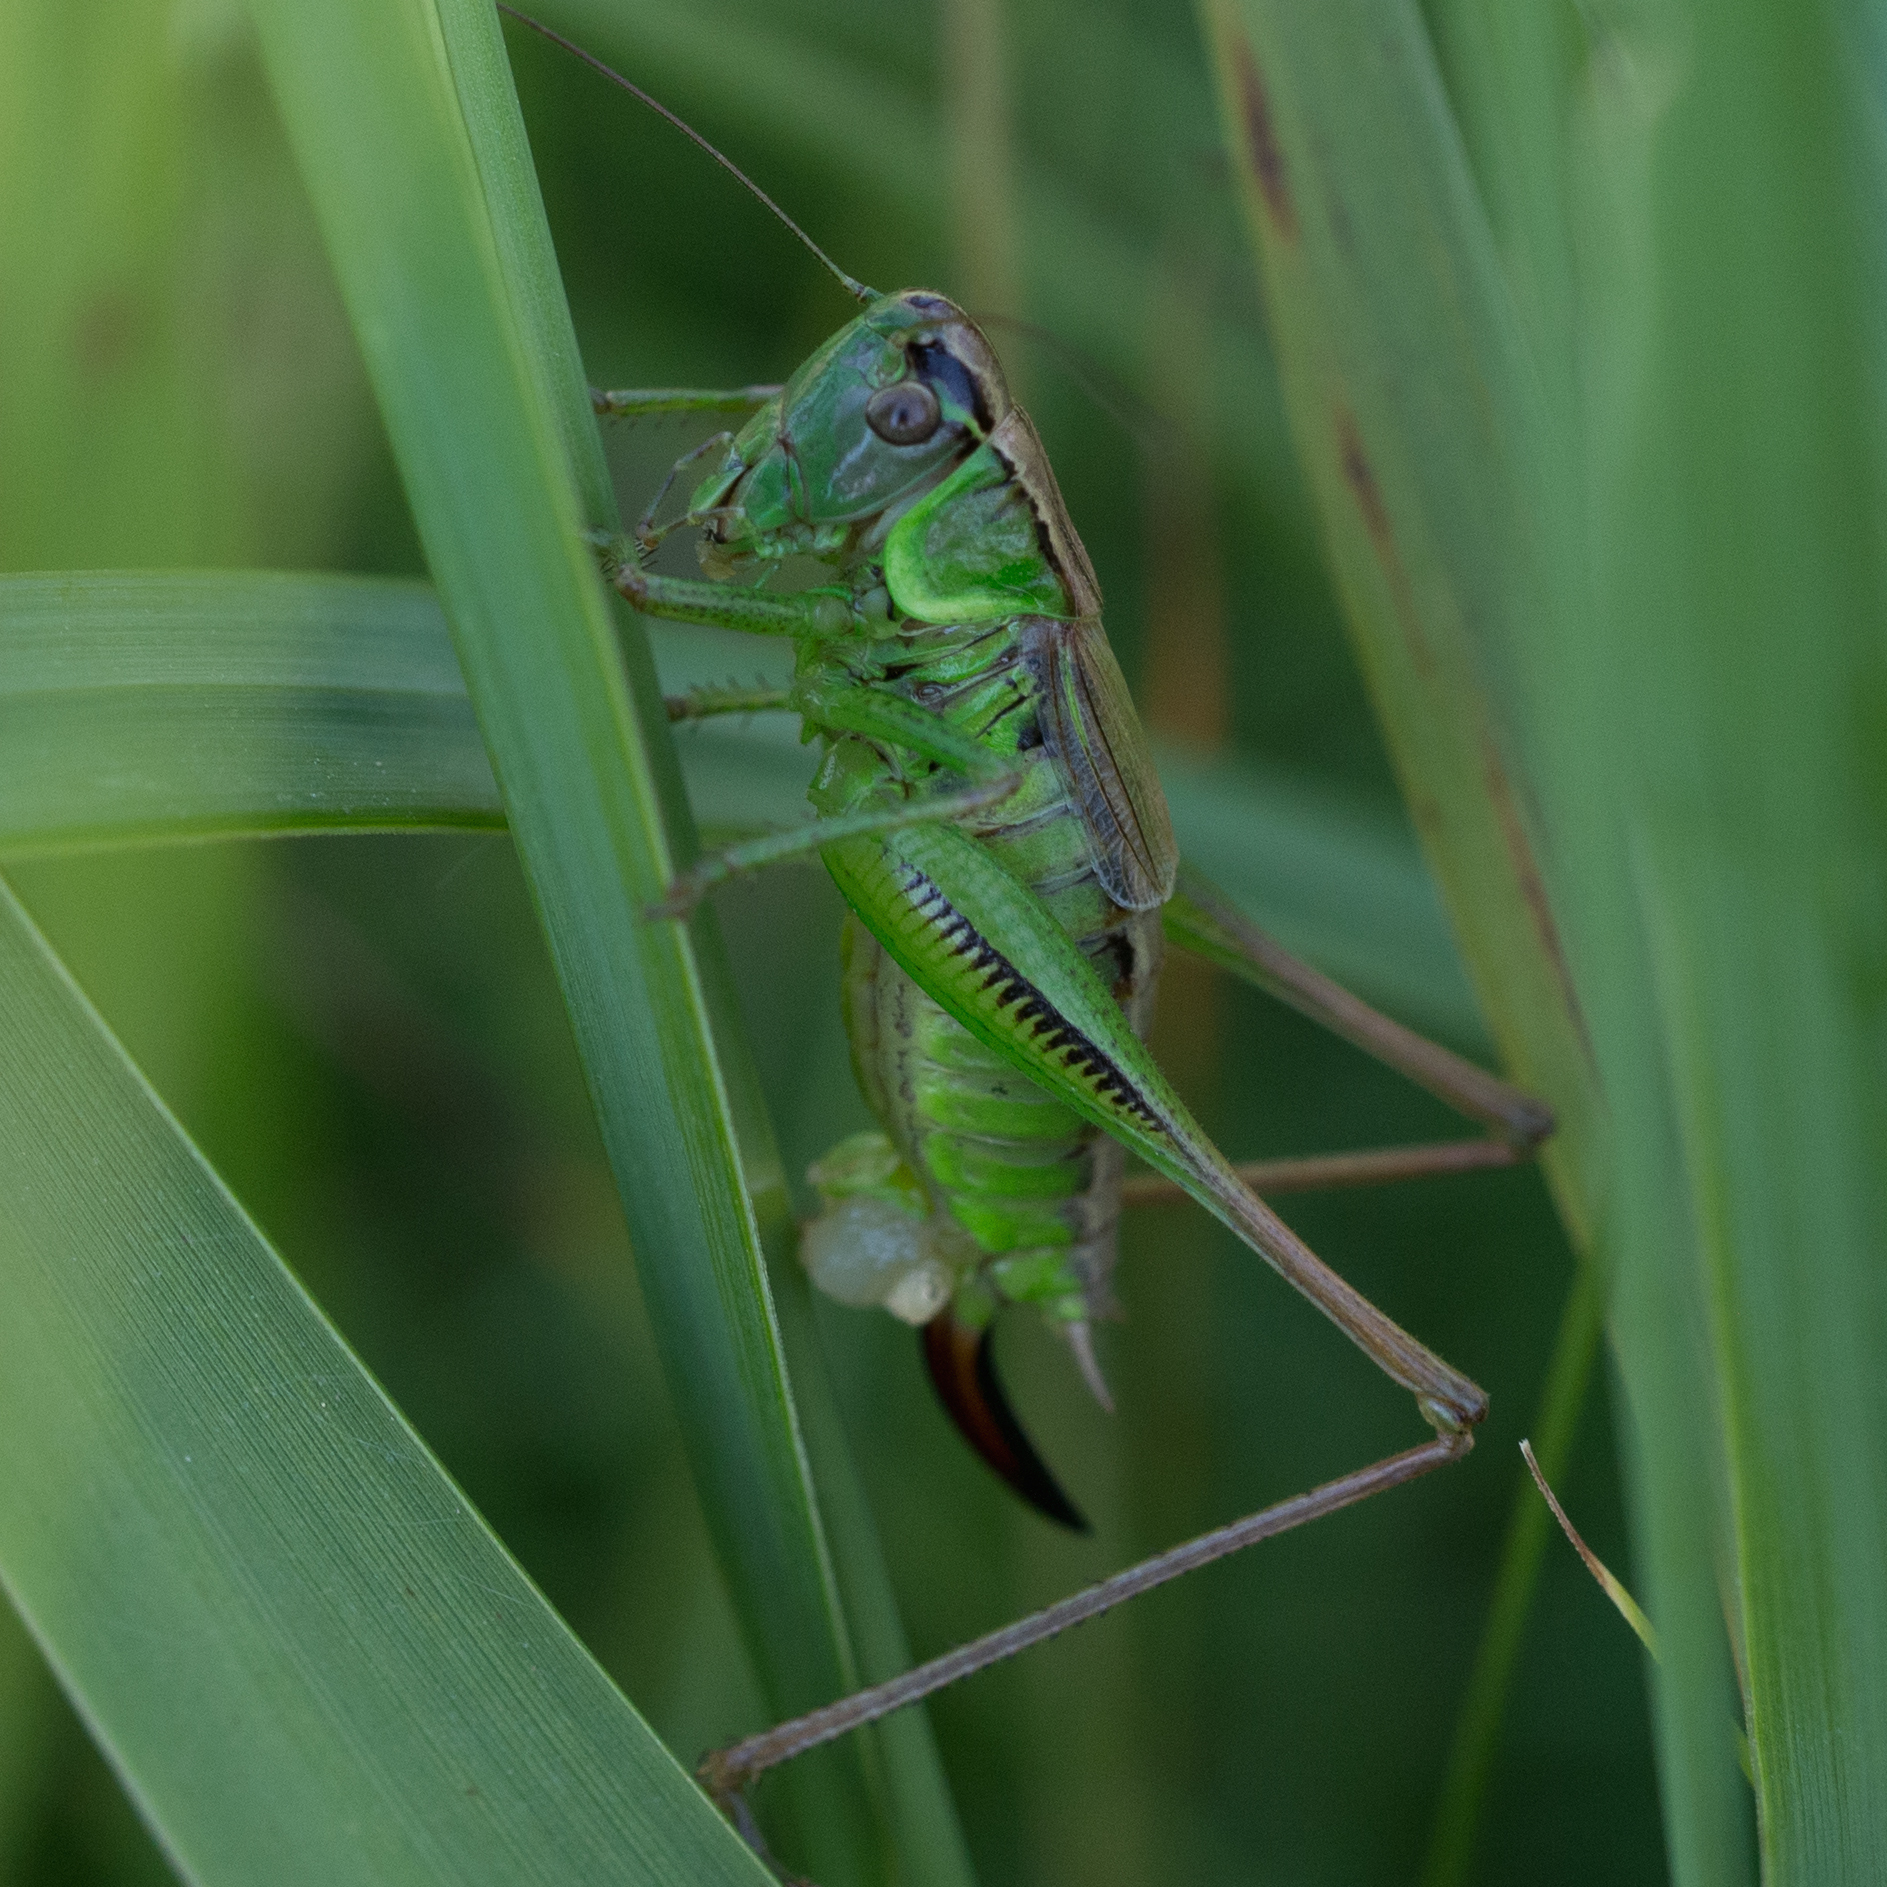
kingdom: Animalia
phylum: Arthropoda
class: Insecta
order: Orthoptera
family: Tettigoniidae
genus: Roeseliana
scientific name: Roeseliana roeselii
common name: Roesel's bush cricket
